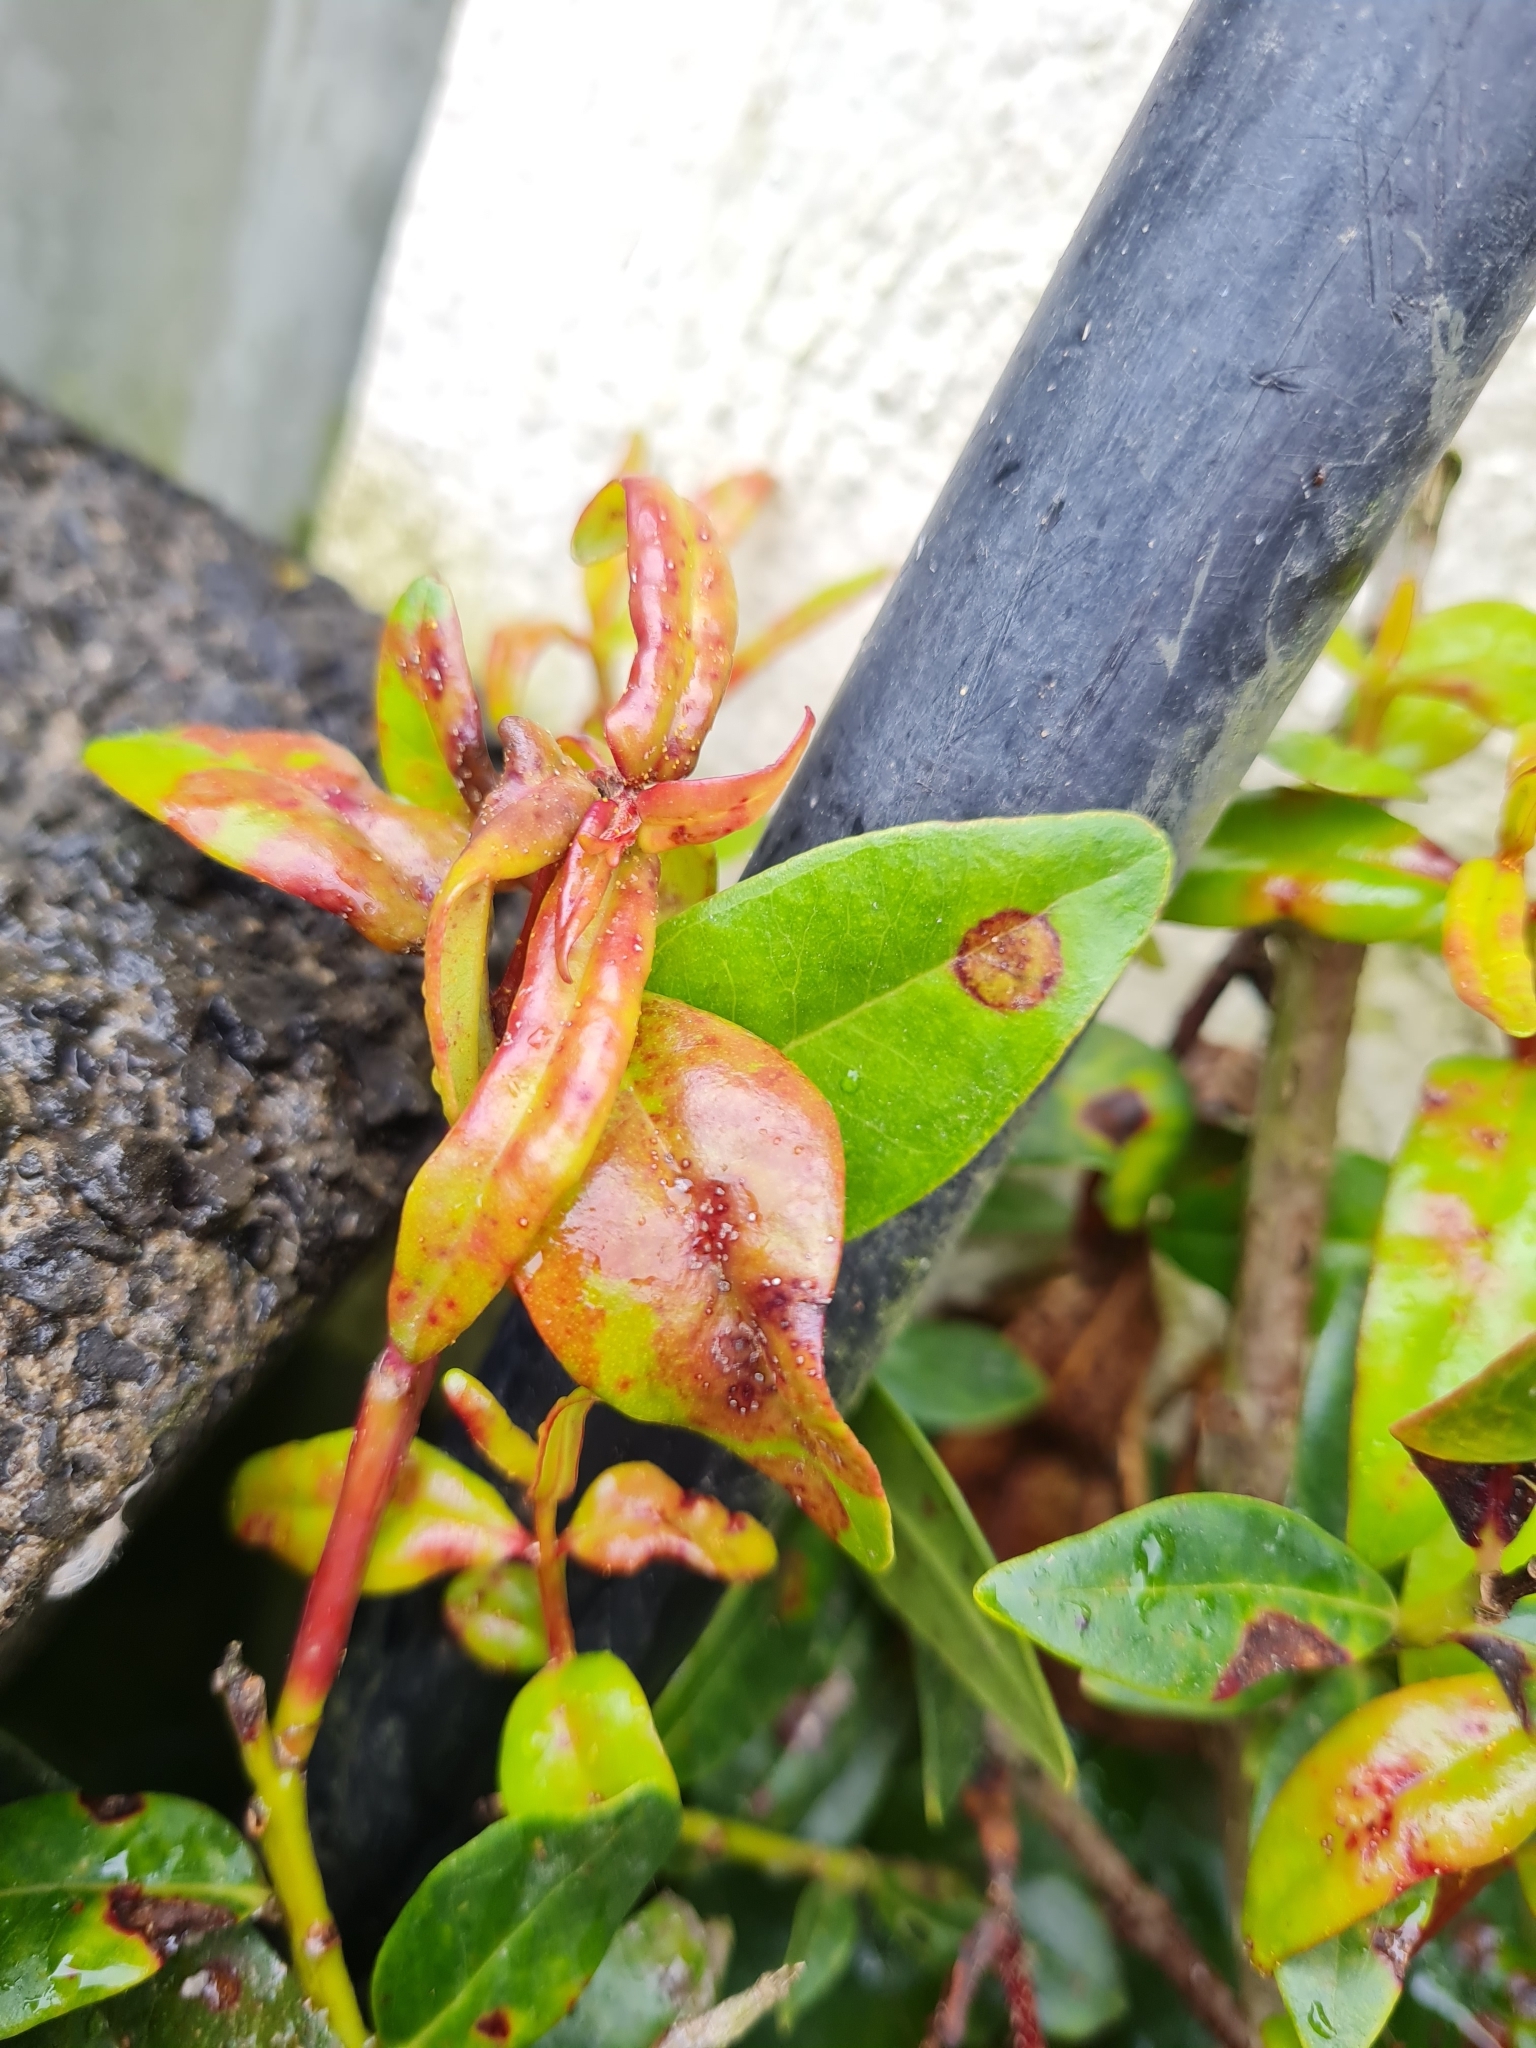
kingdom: Fungi
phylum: Basidiomycota
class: Pucciniomycetes
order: Pucciniales
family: Sphaerophragmiaceae
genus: Austropuccinia
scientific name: Austropuccinia psidii
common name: Myrtle rust
